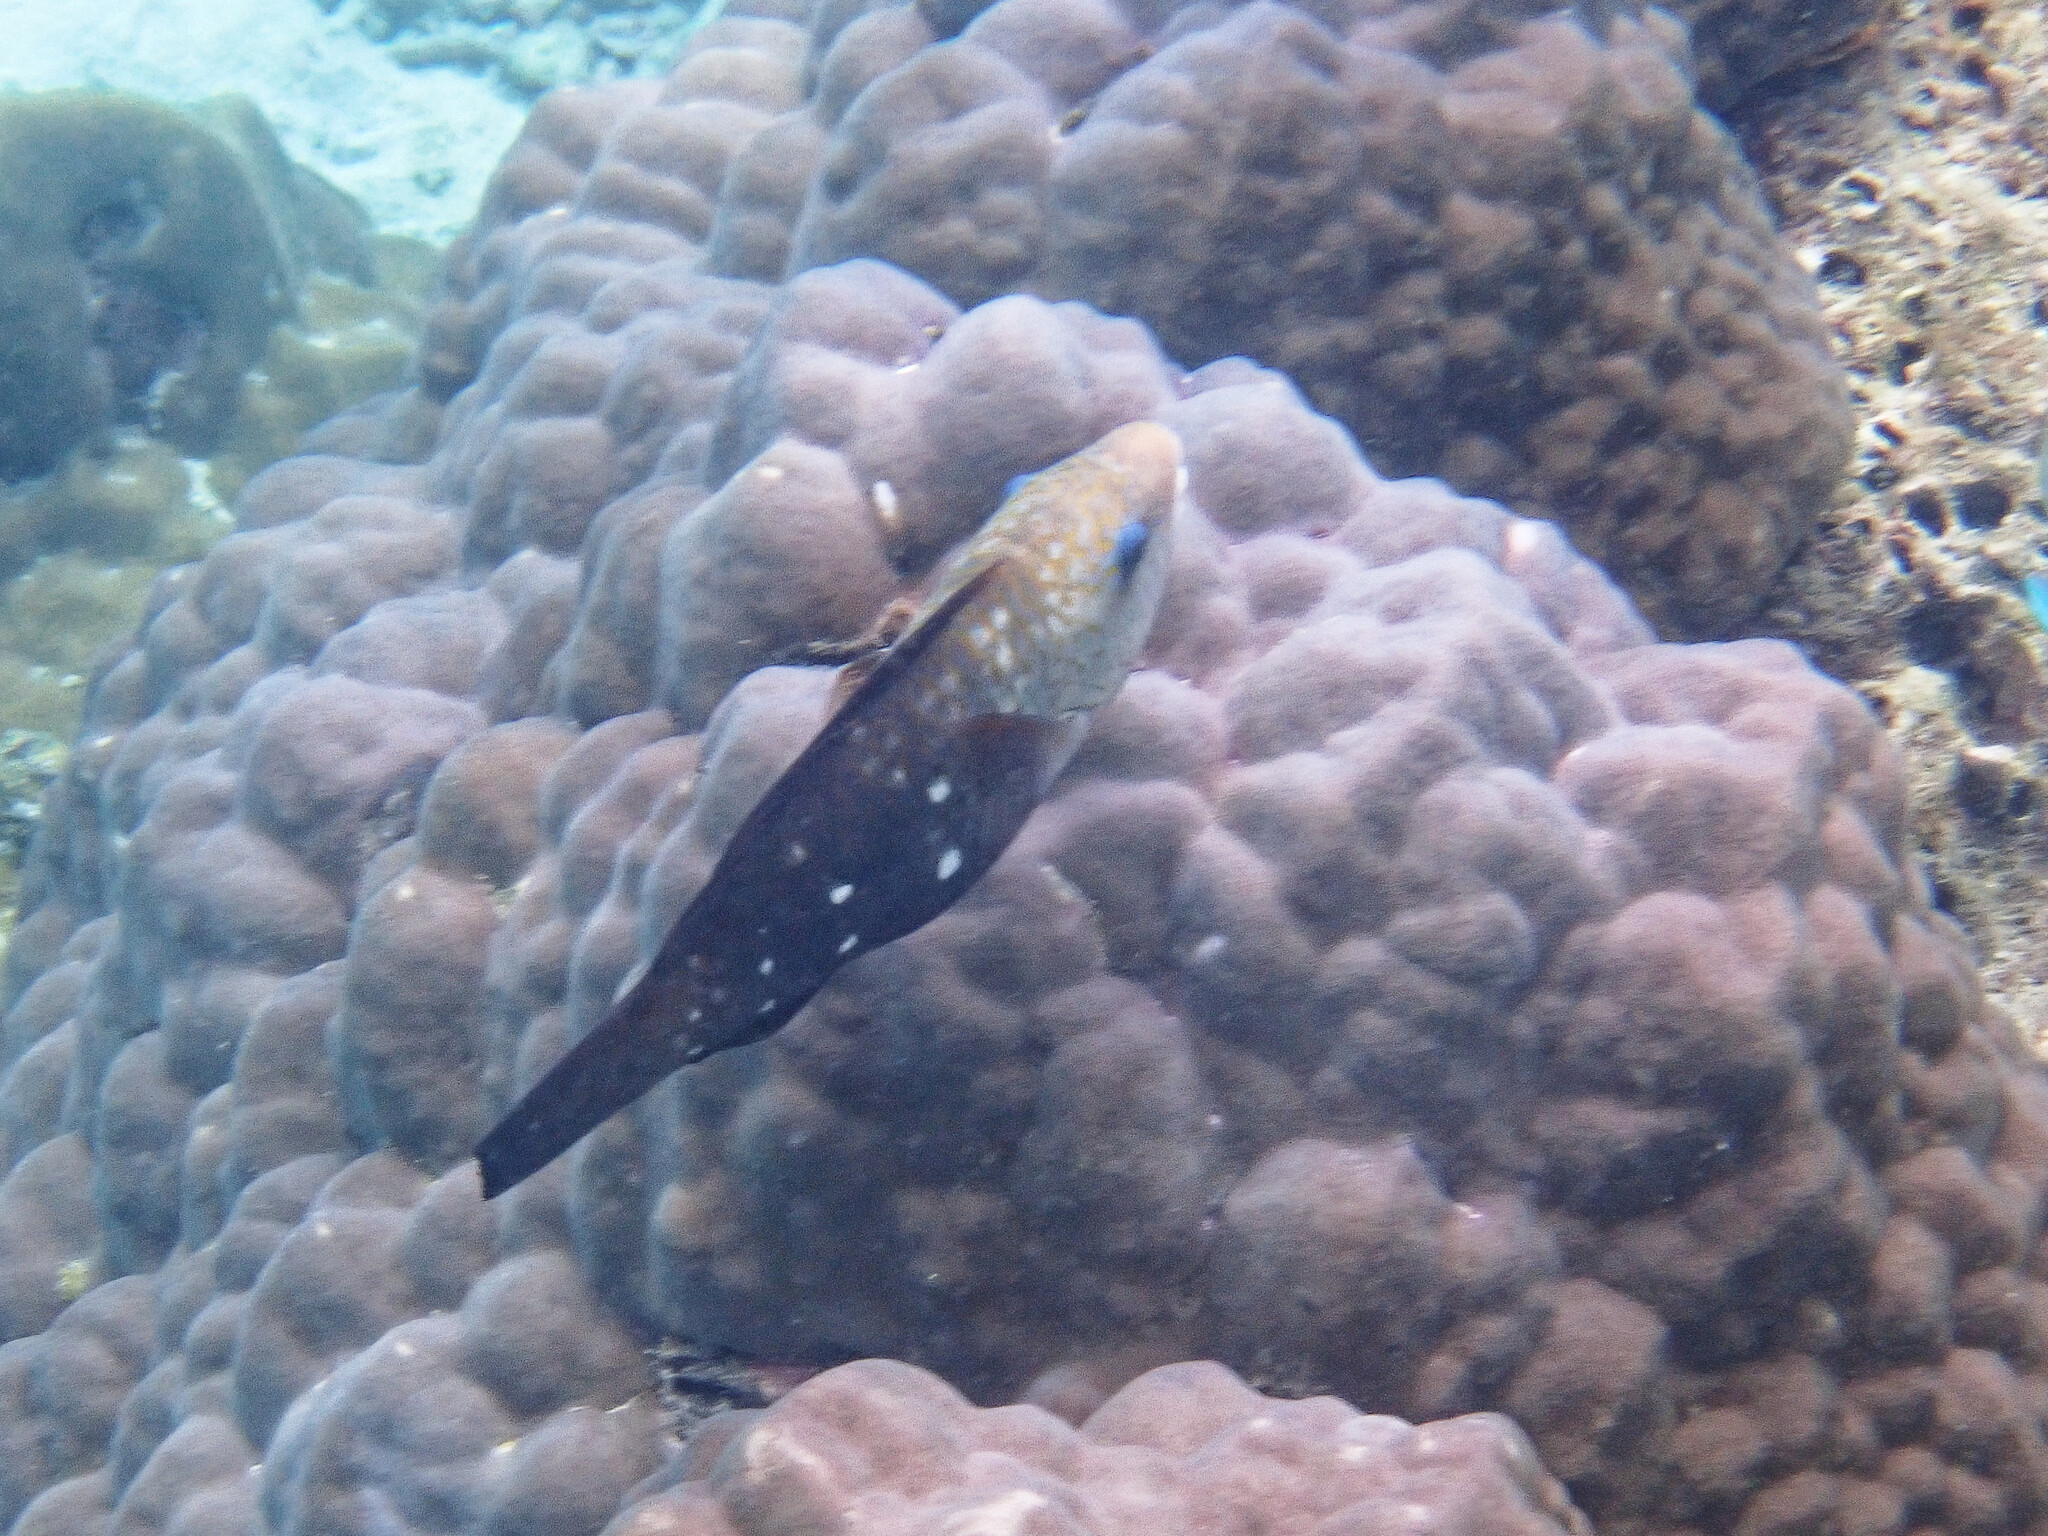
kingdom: Animalia
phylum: Chordata
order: Perciformes
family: Scaridae
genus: Chlorurus
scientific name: Chlorurus sordidus
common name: Bullethead parrotfish
